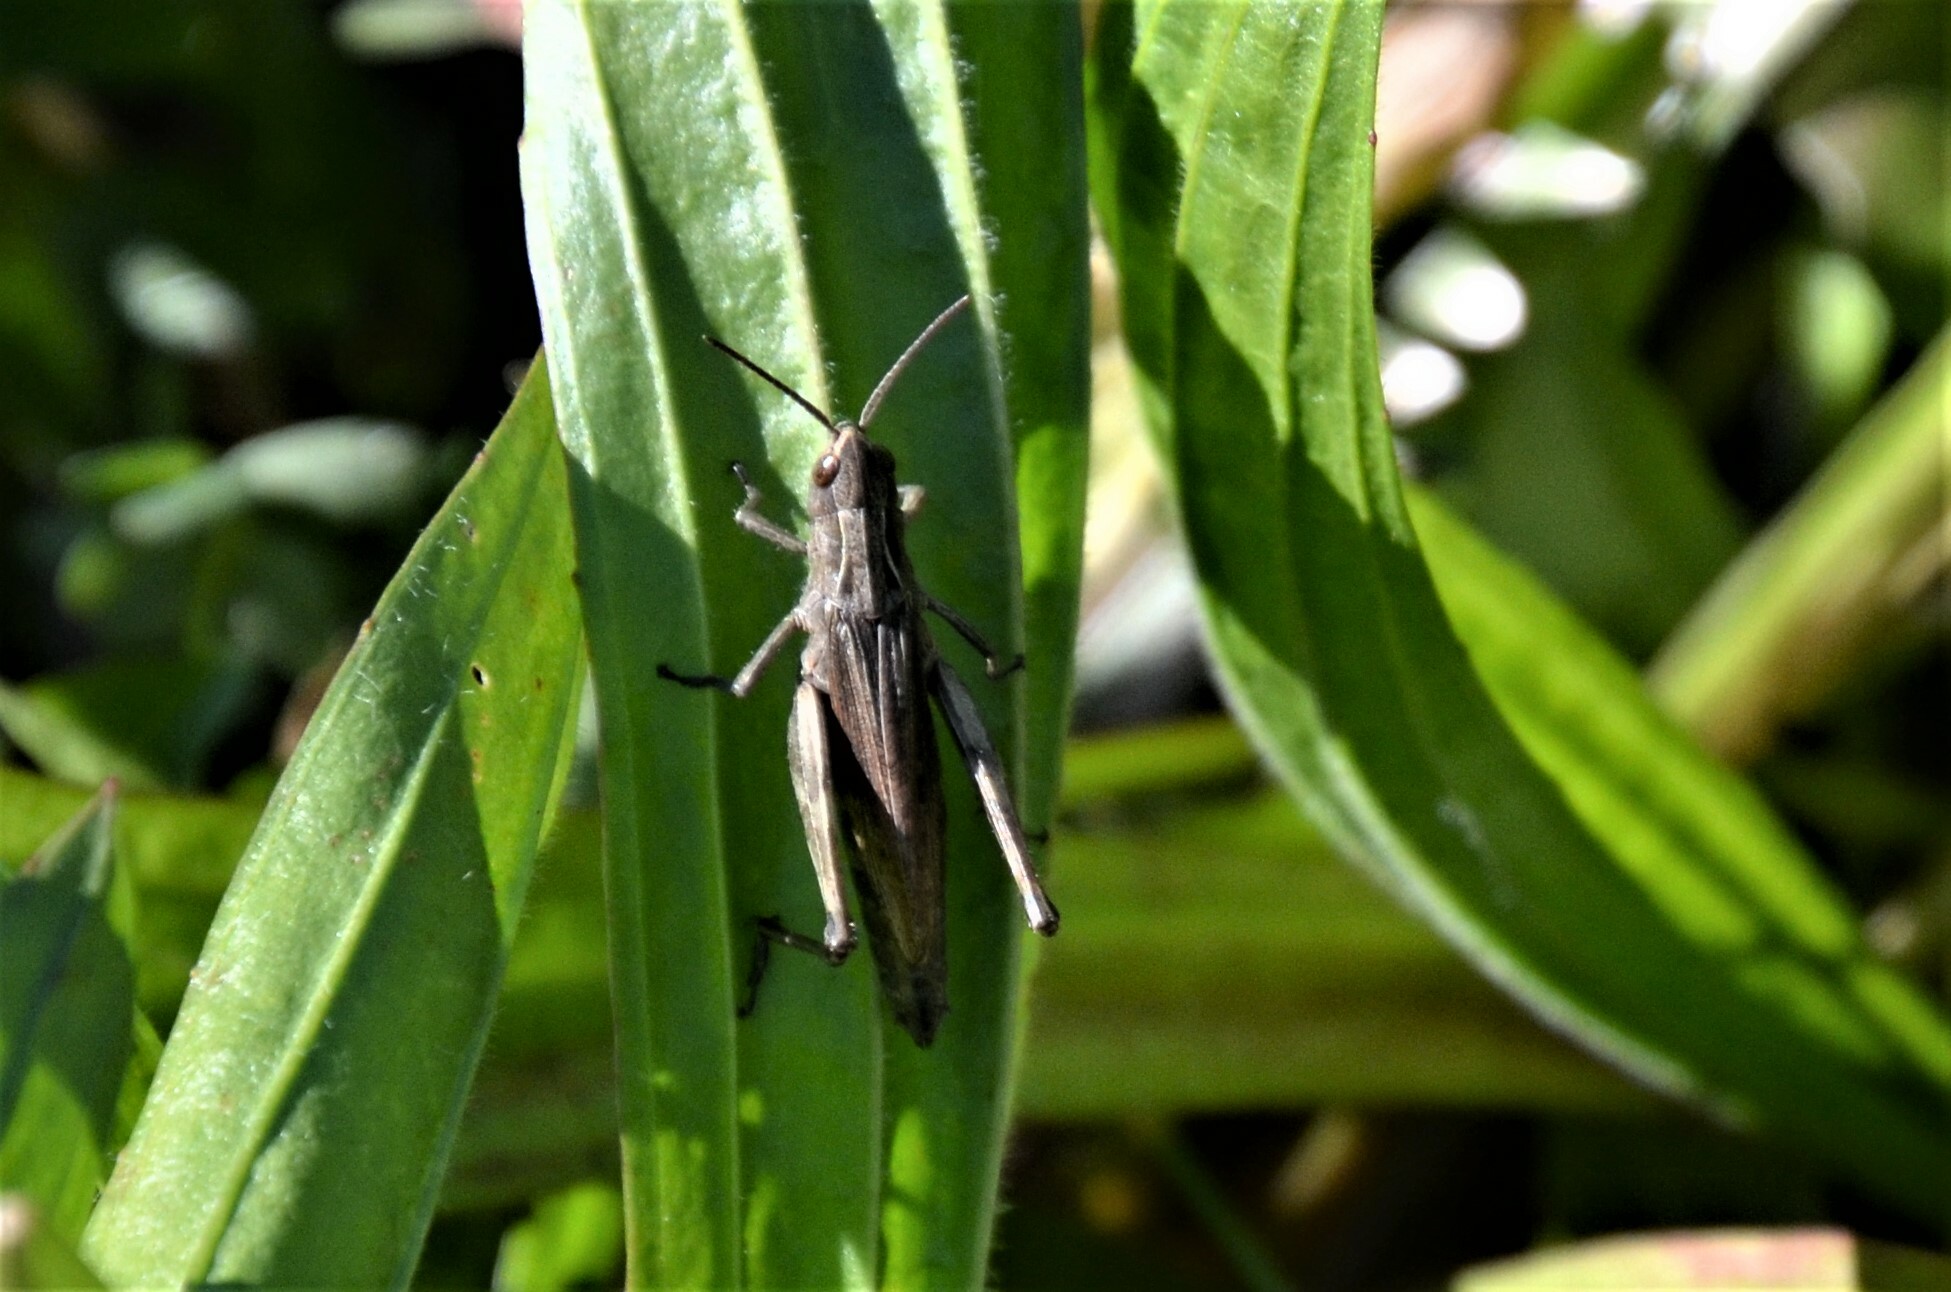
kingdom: Animalia
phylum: Arthropoda
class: Insecta
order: Orthoptera
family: Acrididae
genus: Chorthippus
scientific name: Chorthippus dorsatus
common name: Steppe grasshopper
